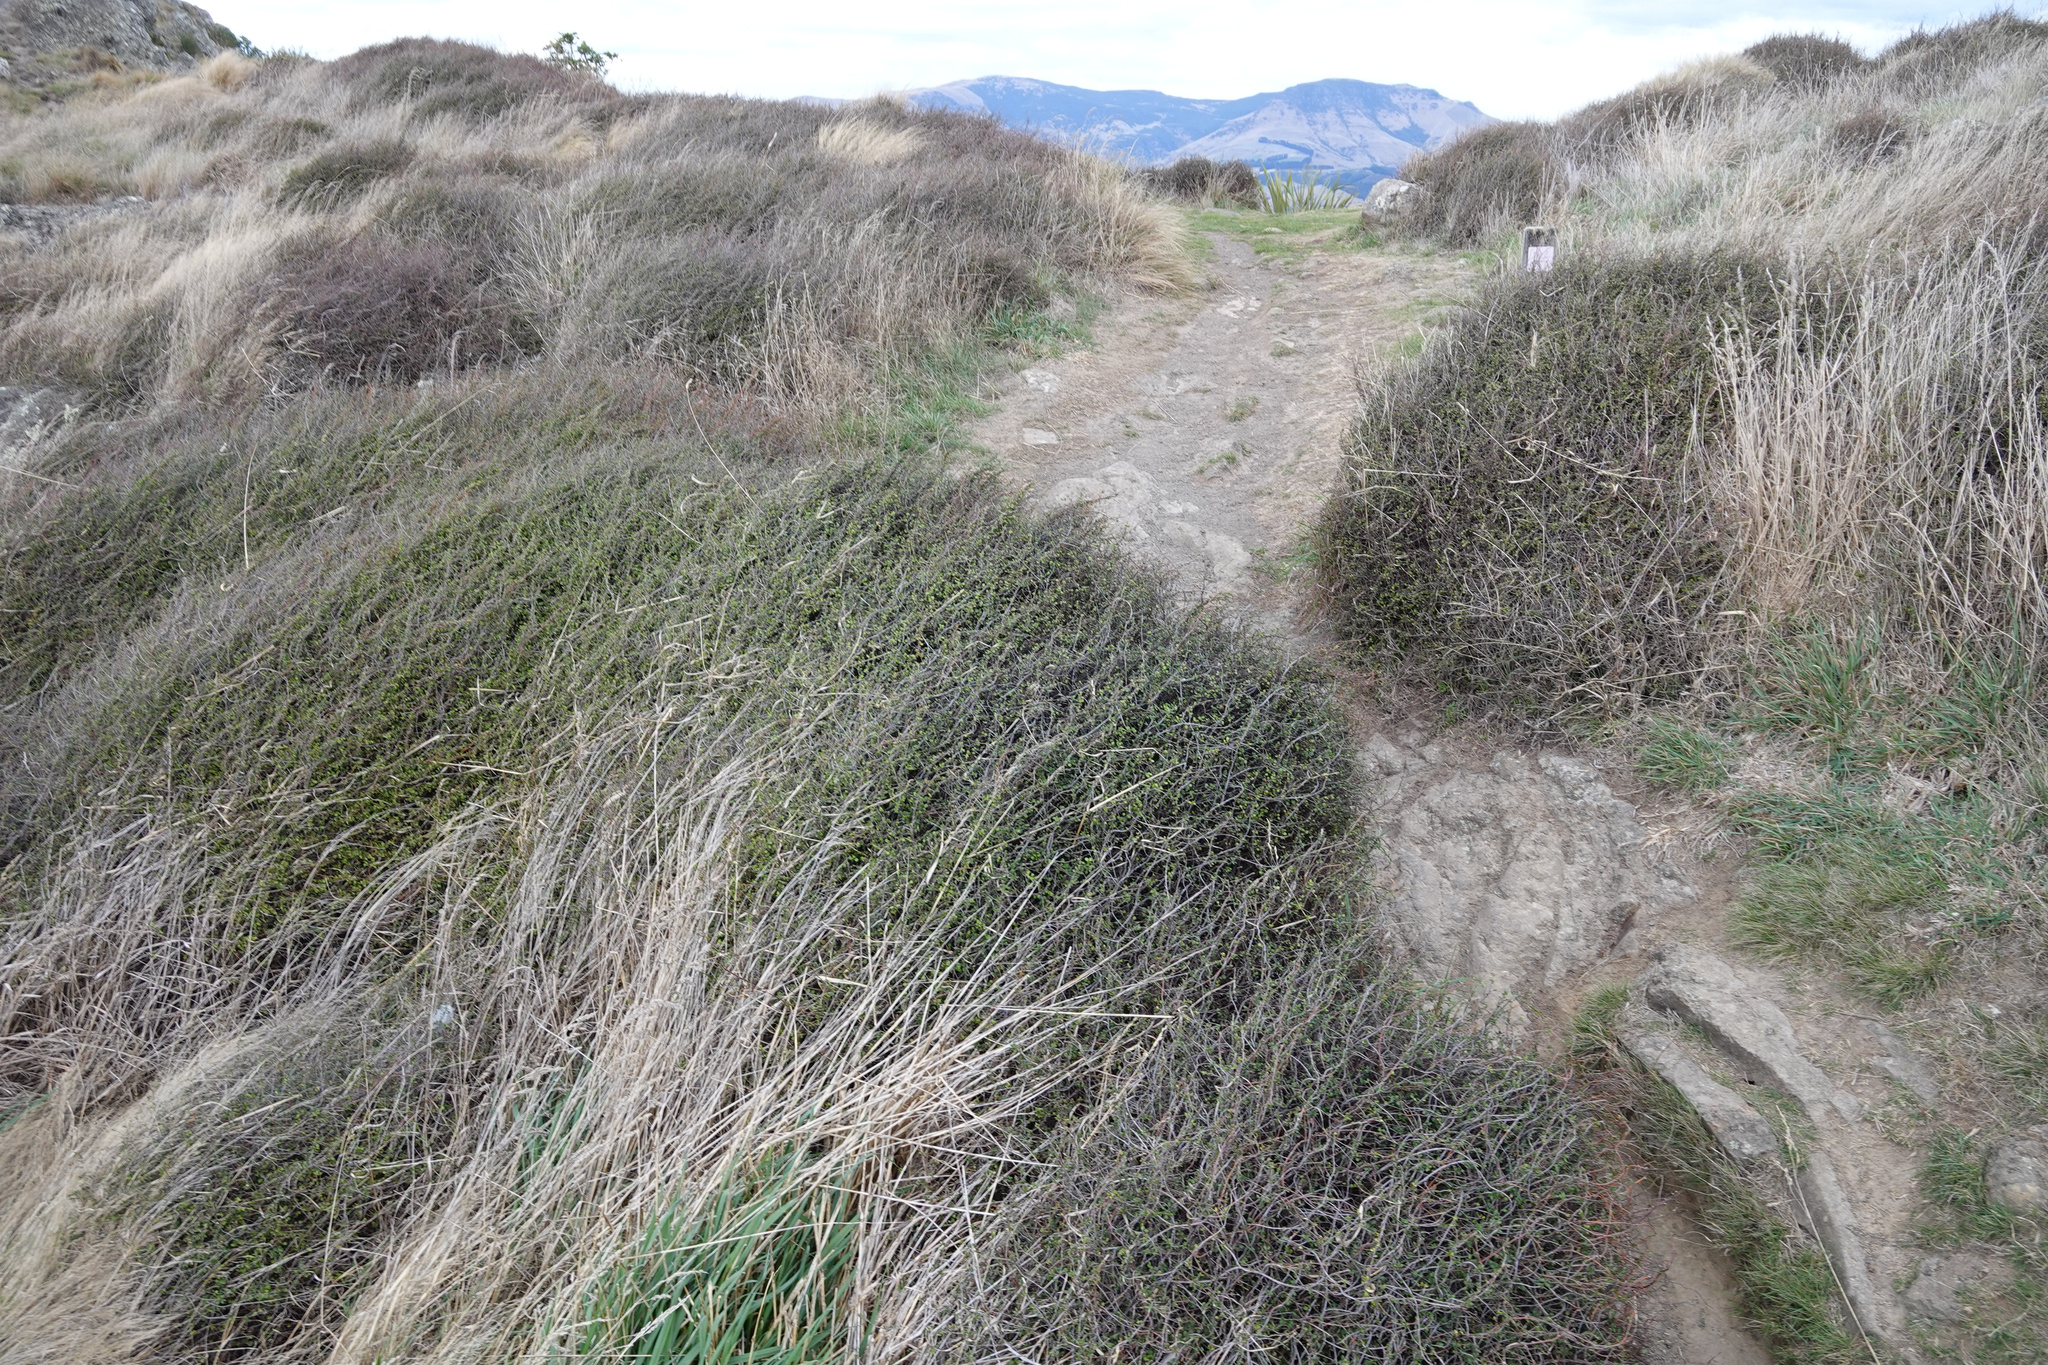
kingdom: Plantae
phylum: Tracheophyta
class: Magnoliopsida
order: Caryophyllales
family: Polygonaceae
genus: Muehlenbeckia
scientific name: Muehlenbeckia complexa
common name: Wireplant
